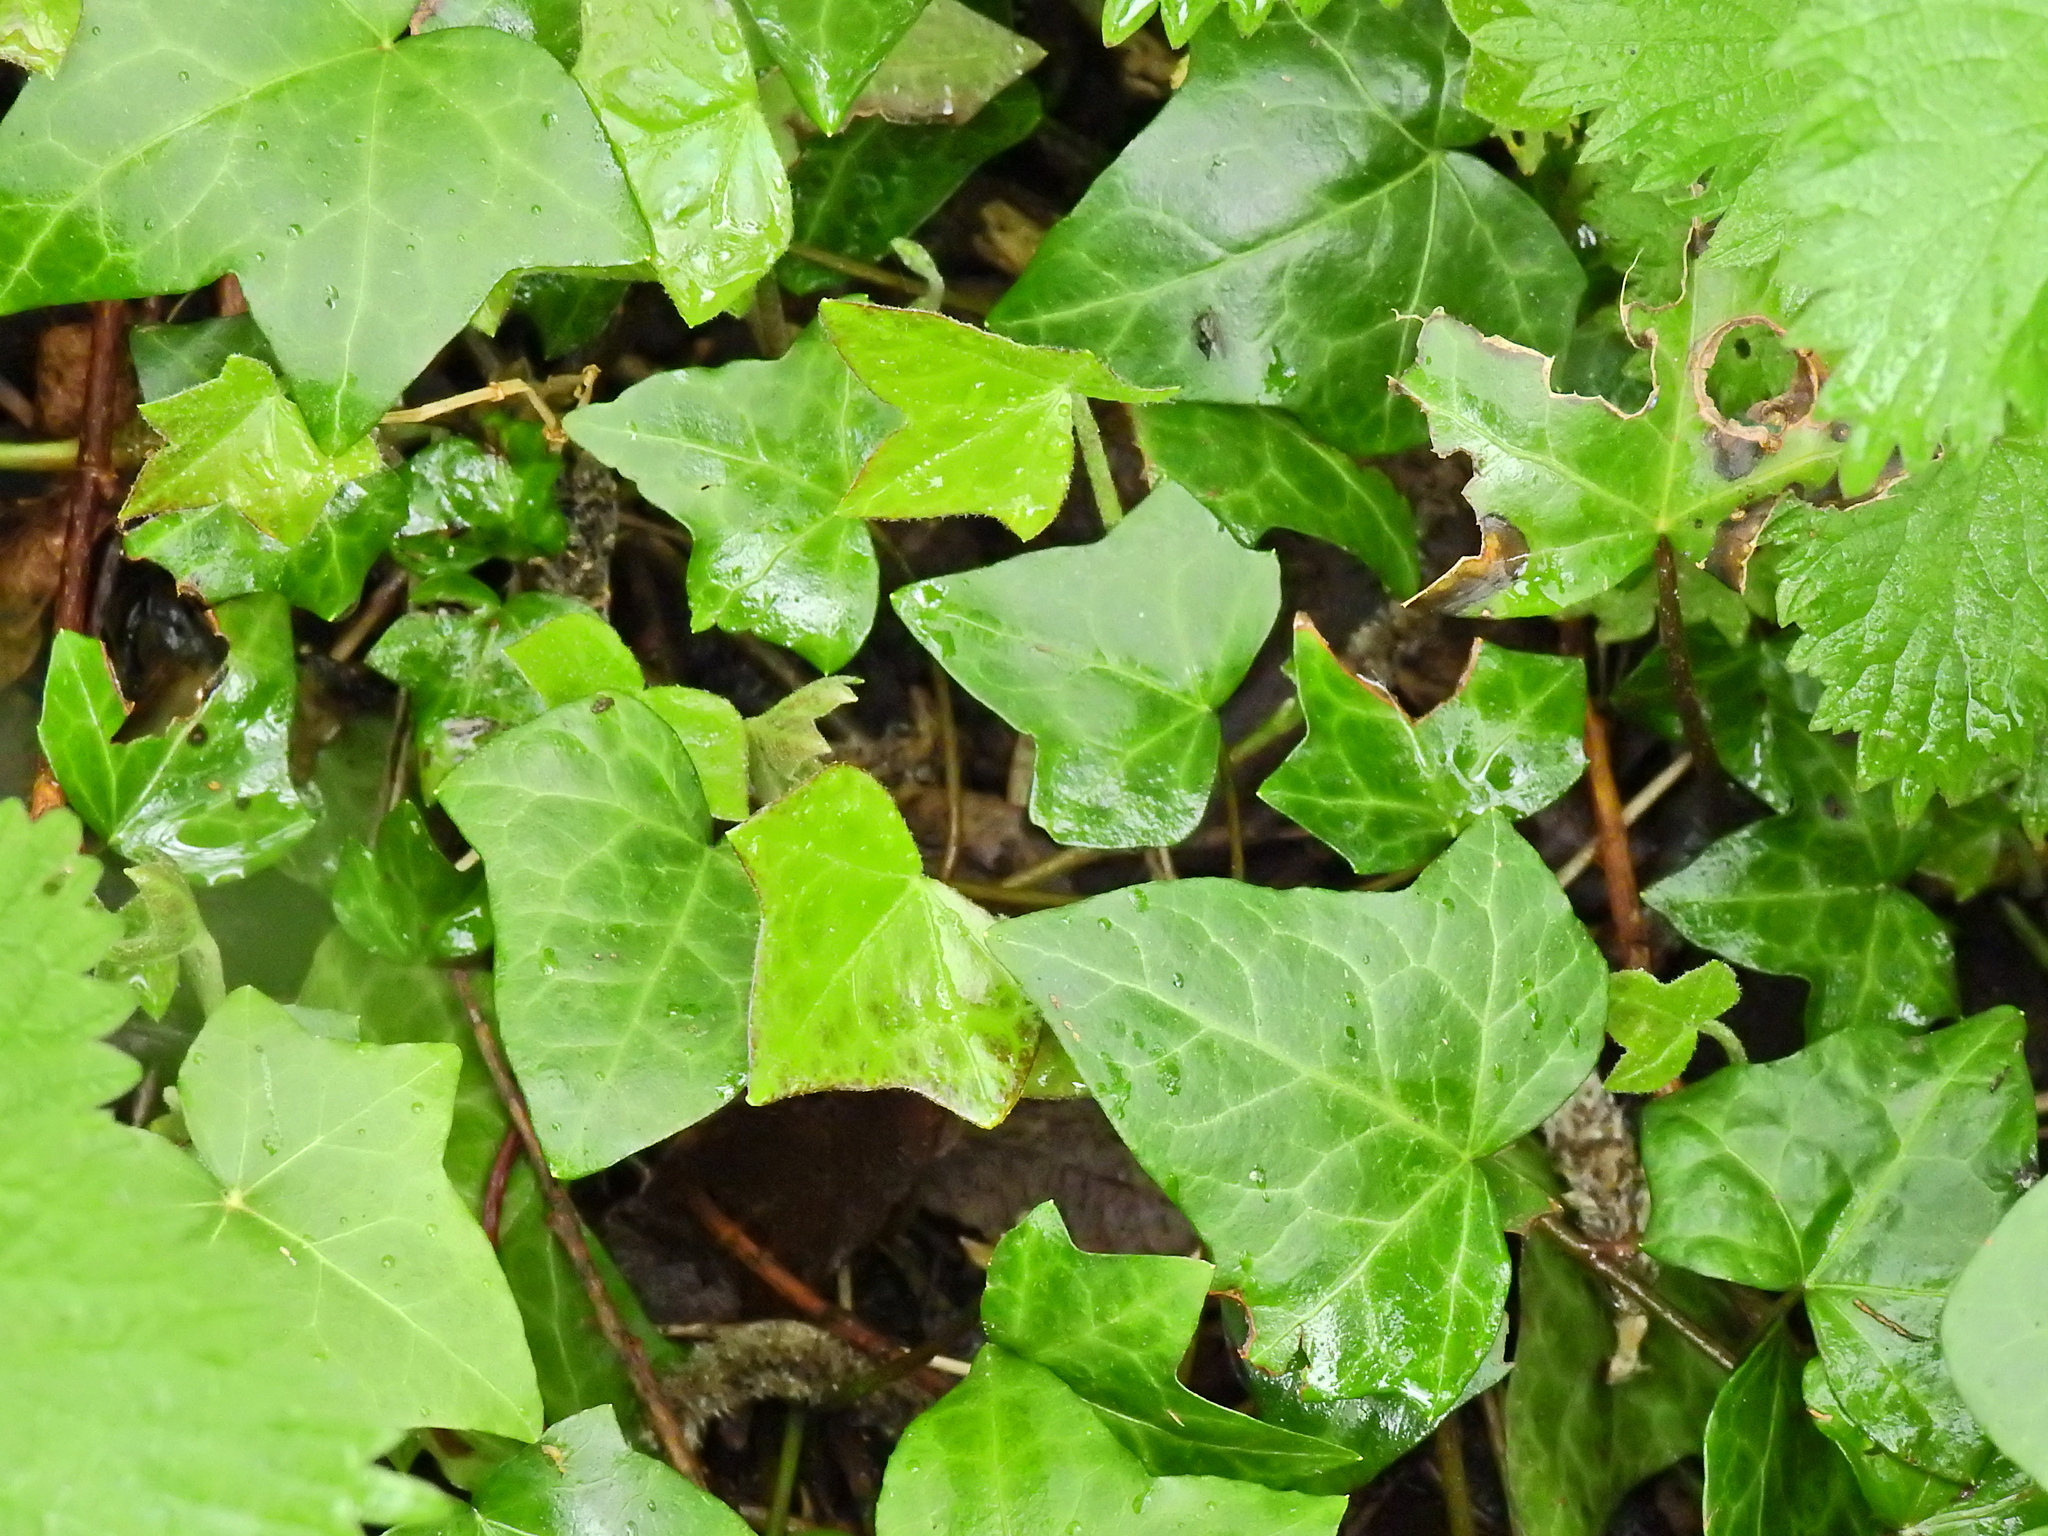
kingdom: Plantae
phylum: Tracheophyta
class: Magnoliopsida
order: Apiales
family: Araliaceae
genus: Hedera
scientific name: Hedera helix
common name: Ivy
